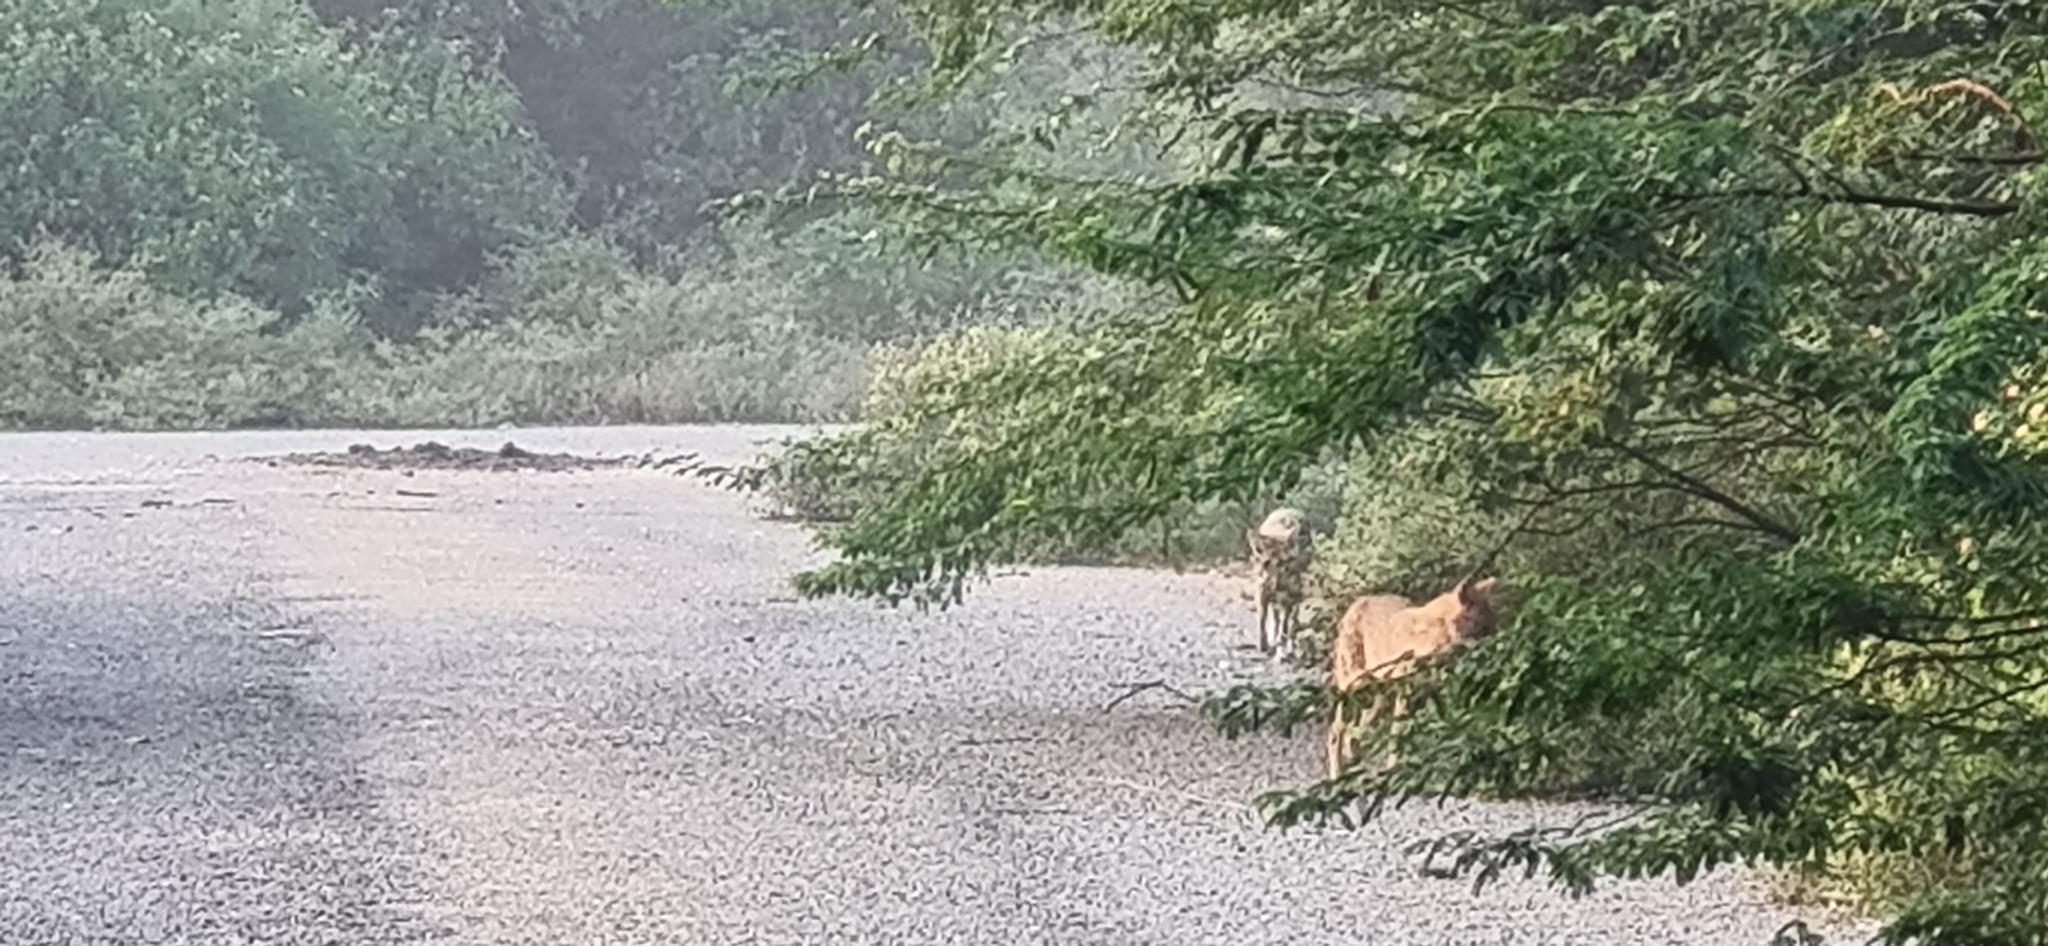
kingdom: Animalia
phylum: Chordata
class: Mammalia
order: Carnivora
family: Canidae
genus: Canis
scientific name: Canis aureus
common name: Golden jackal
